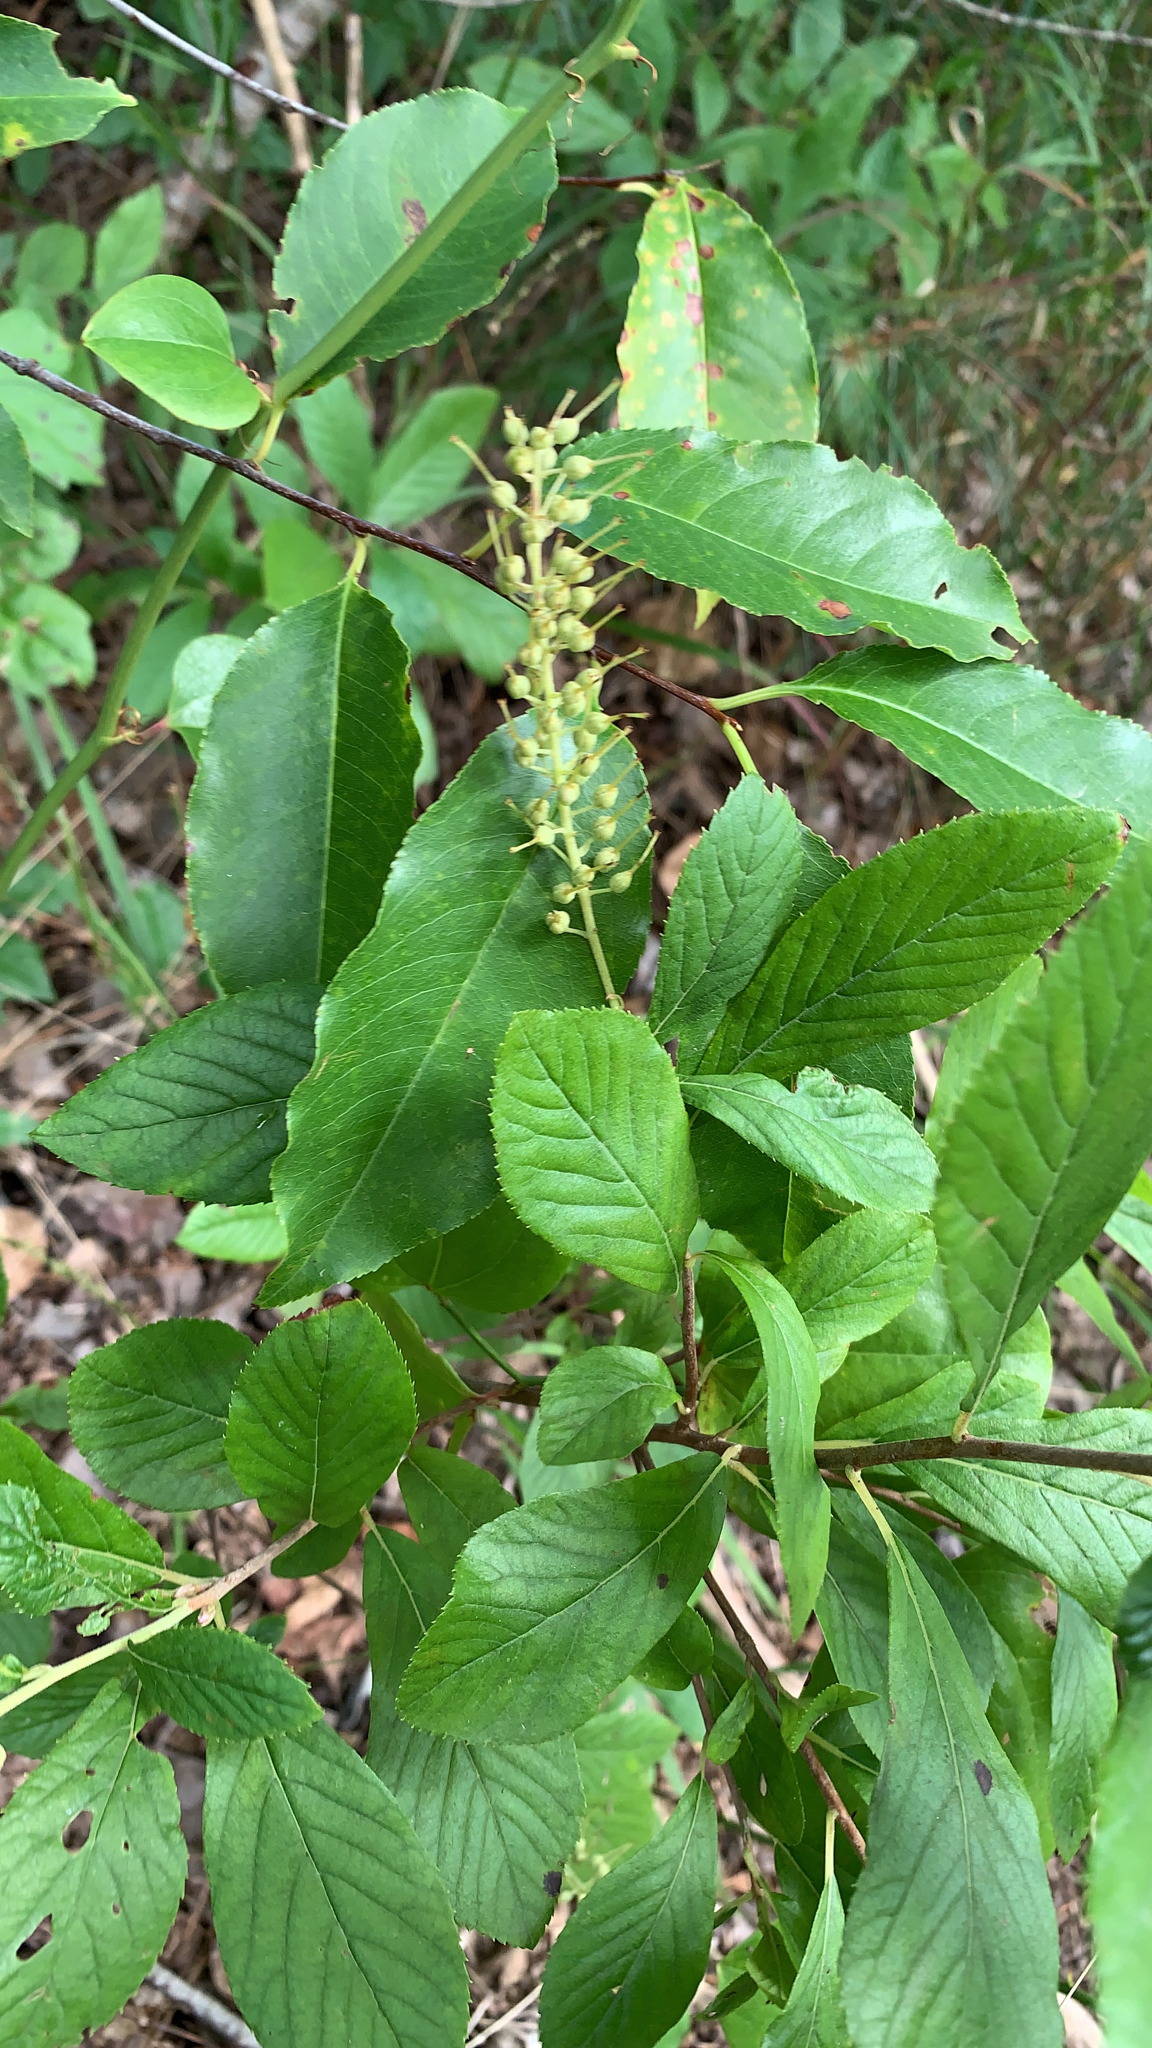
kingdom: Plantae
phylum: Tracheophyta
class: Magnoliopsida
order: Ericales
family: Clethraceae
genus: Clethra
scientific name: Clethra alnifolia
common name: Sweet pepperbush
